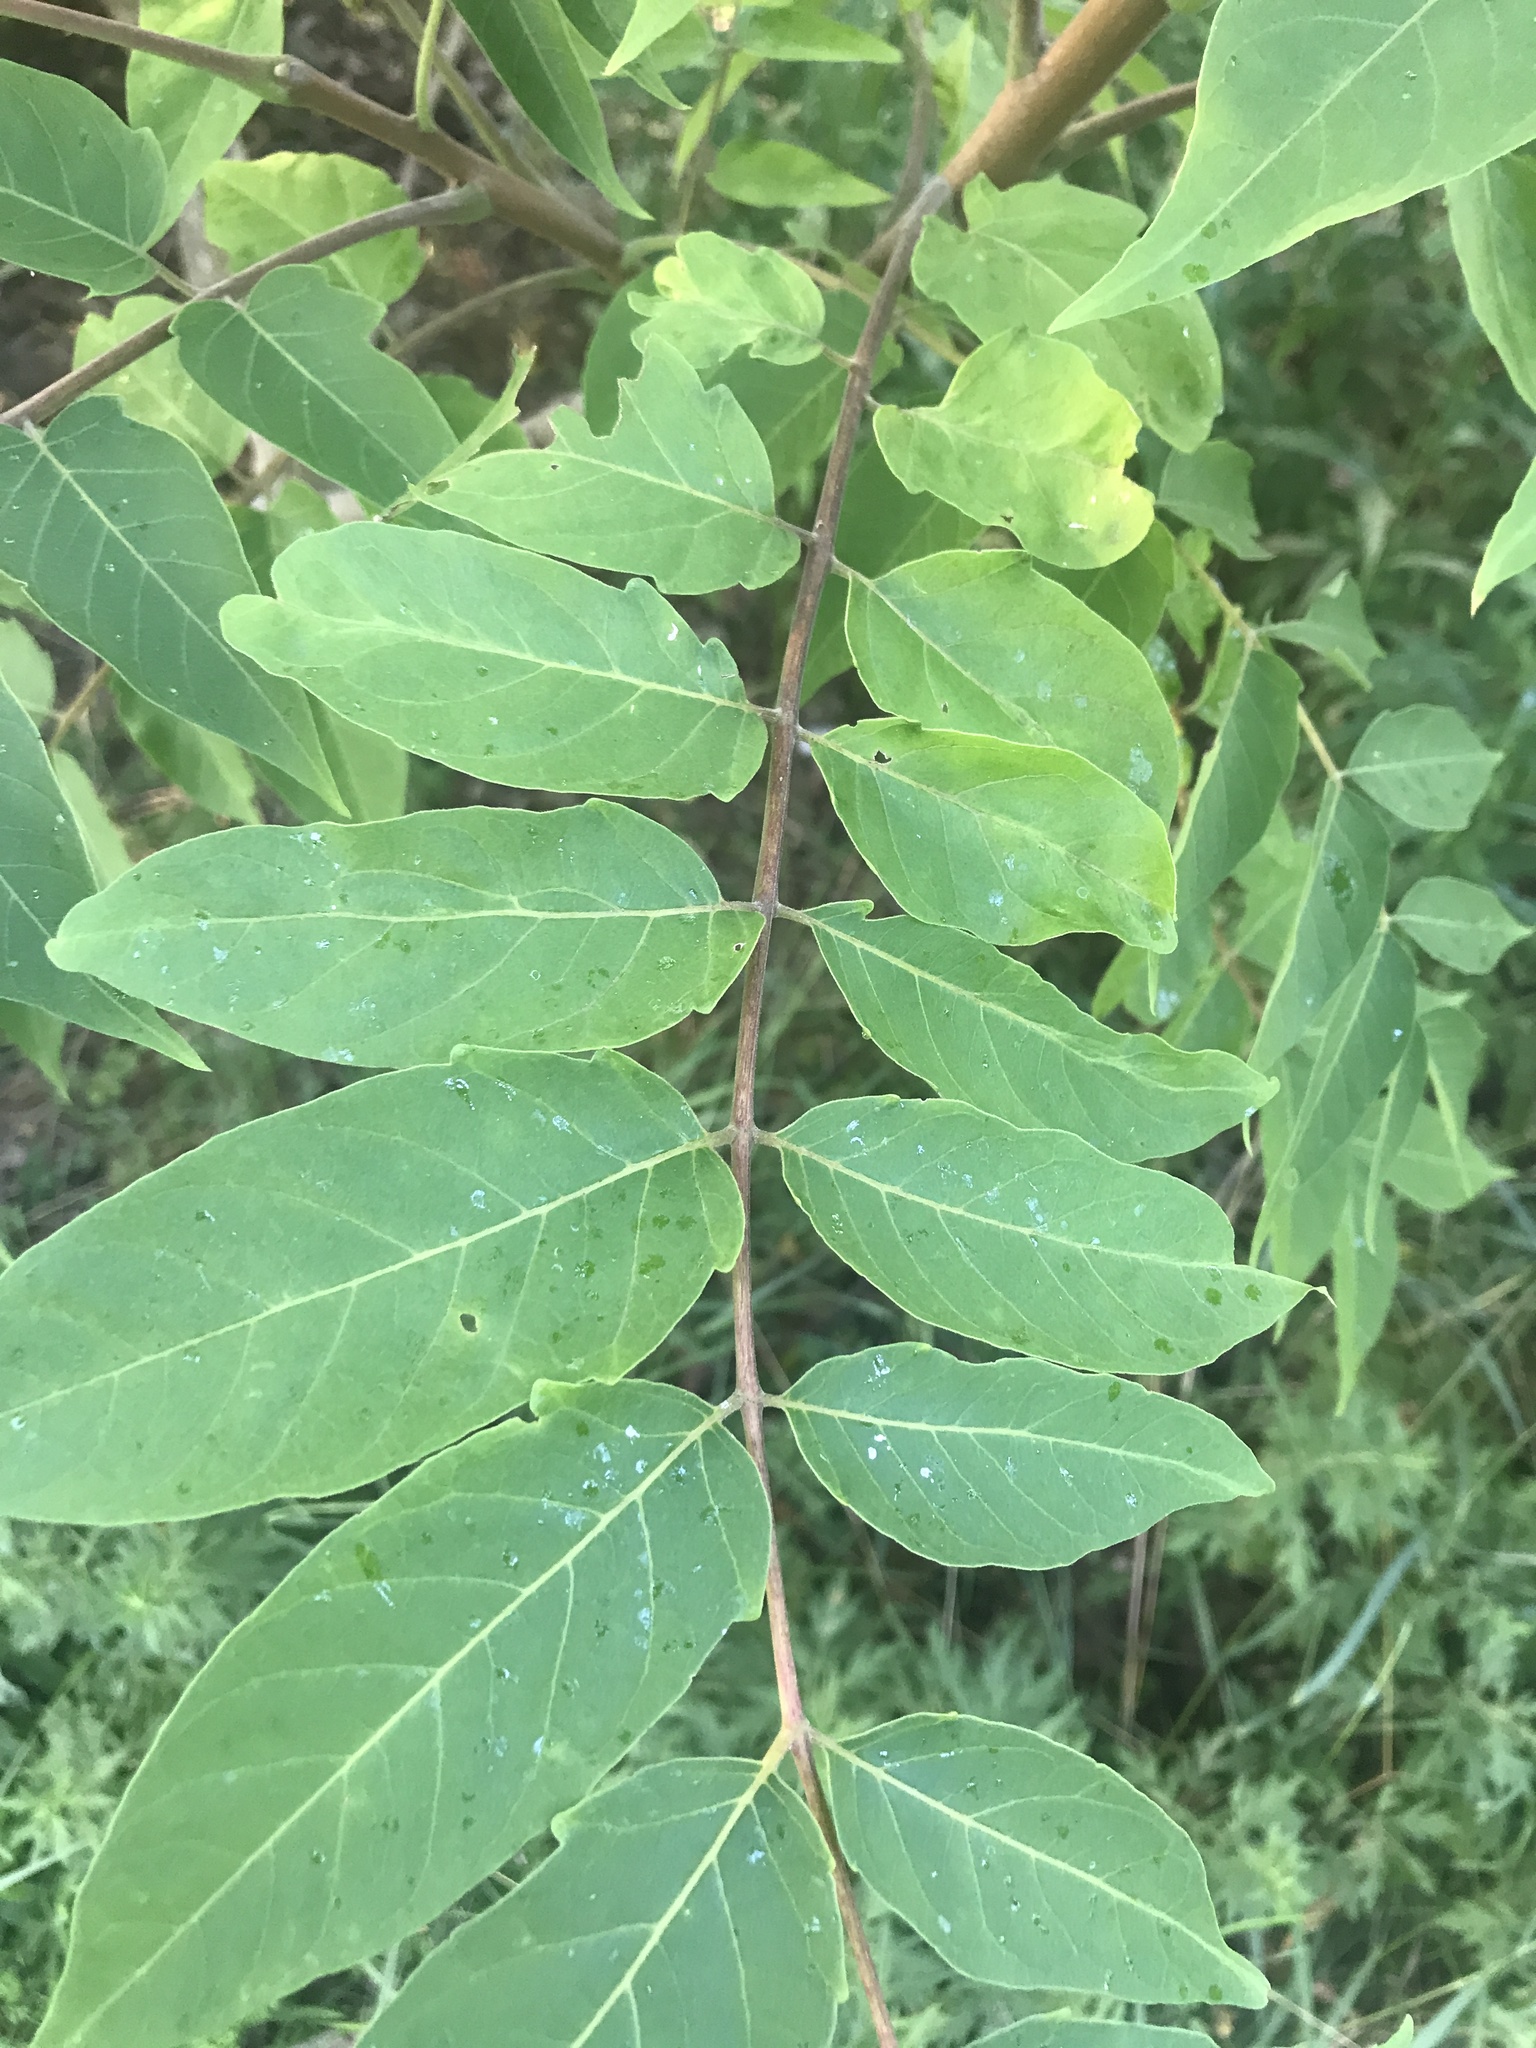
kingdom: Plantae
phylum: Tracheophyta
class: Magnoliopsida
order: Sapindales
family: Simaroubaceae
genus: Ailanthus
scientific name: Ailanthus altissima
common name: Tree-of-heaven
